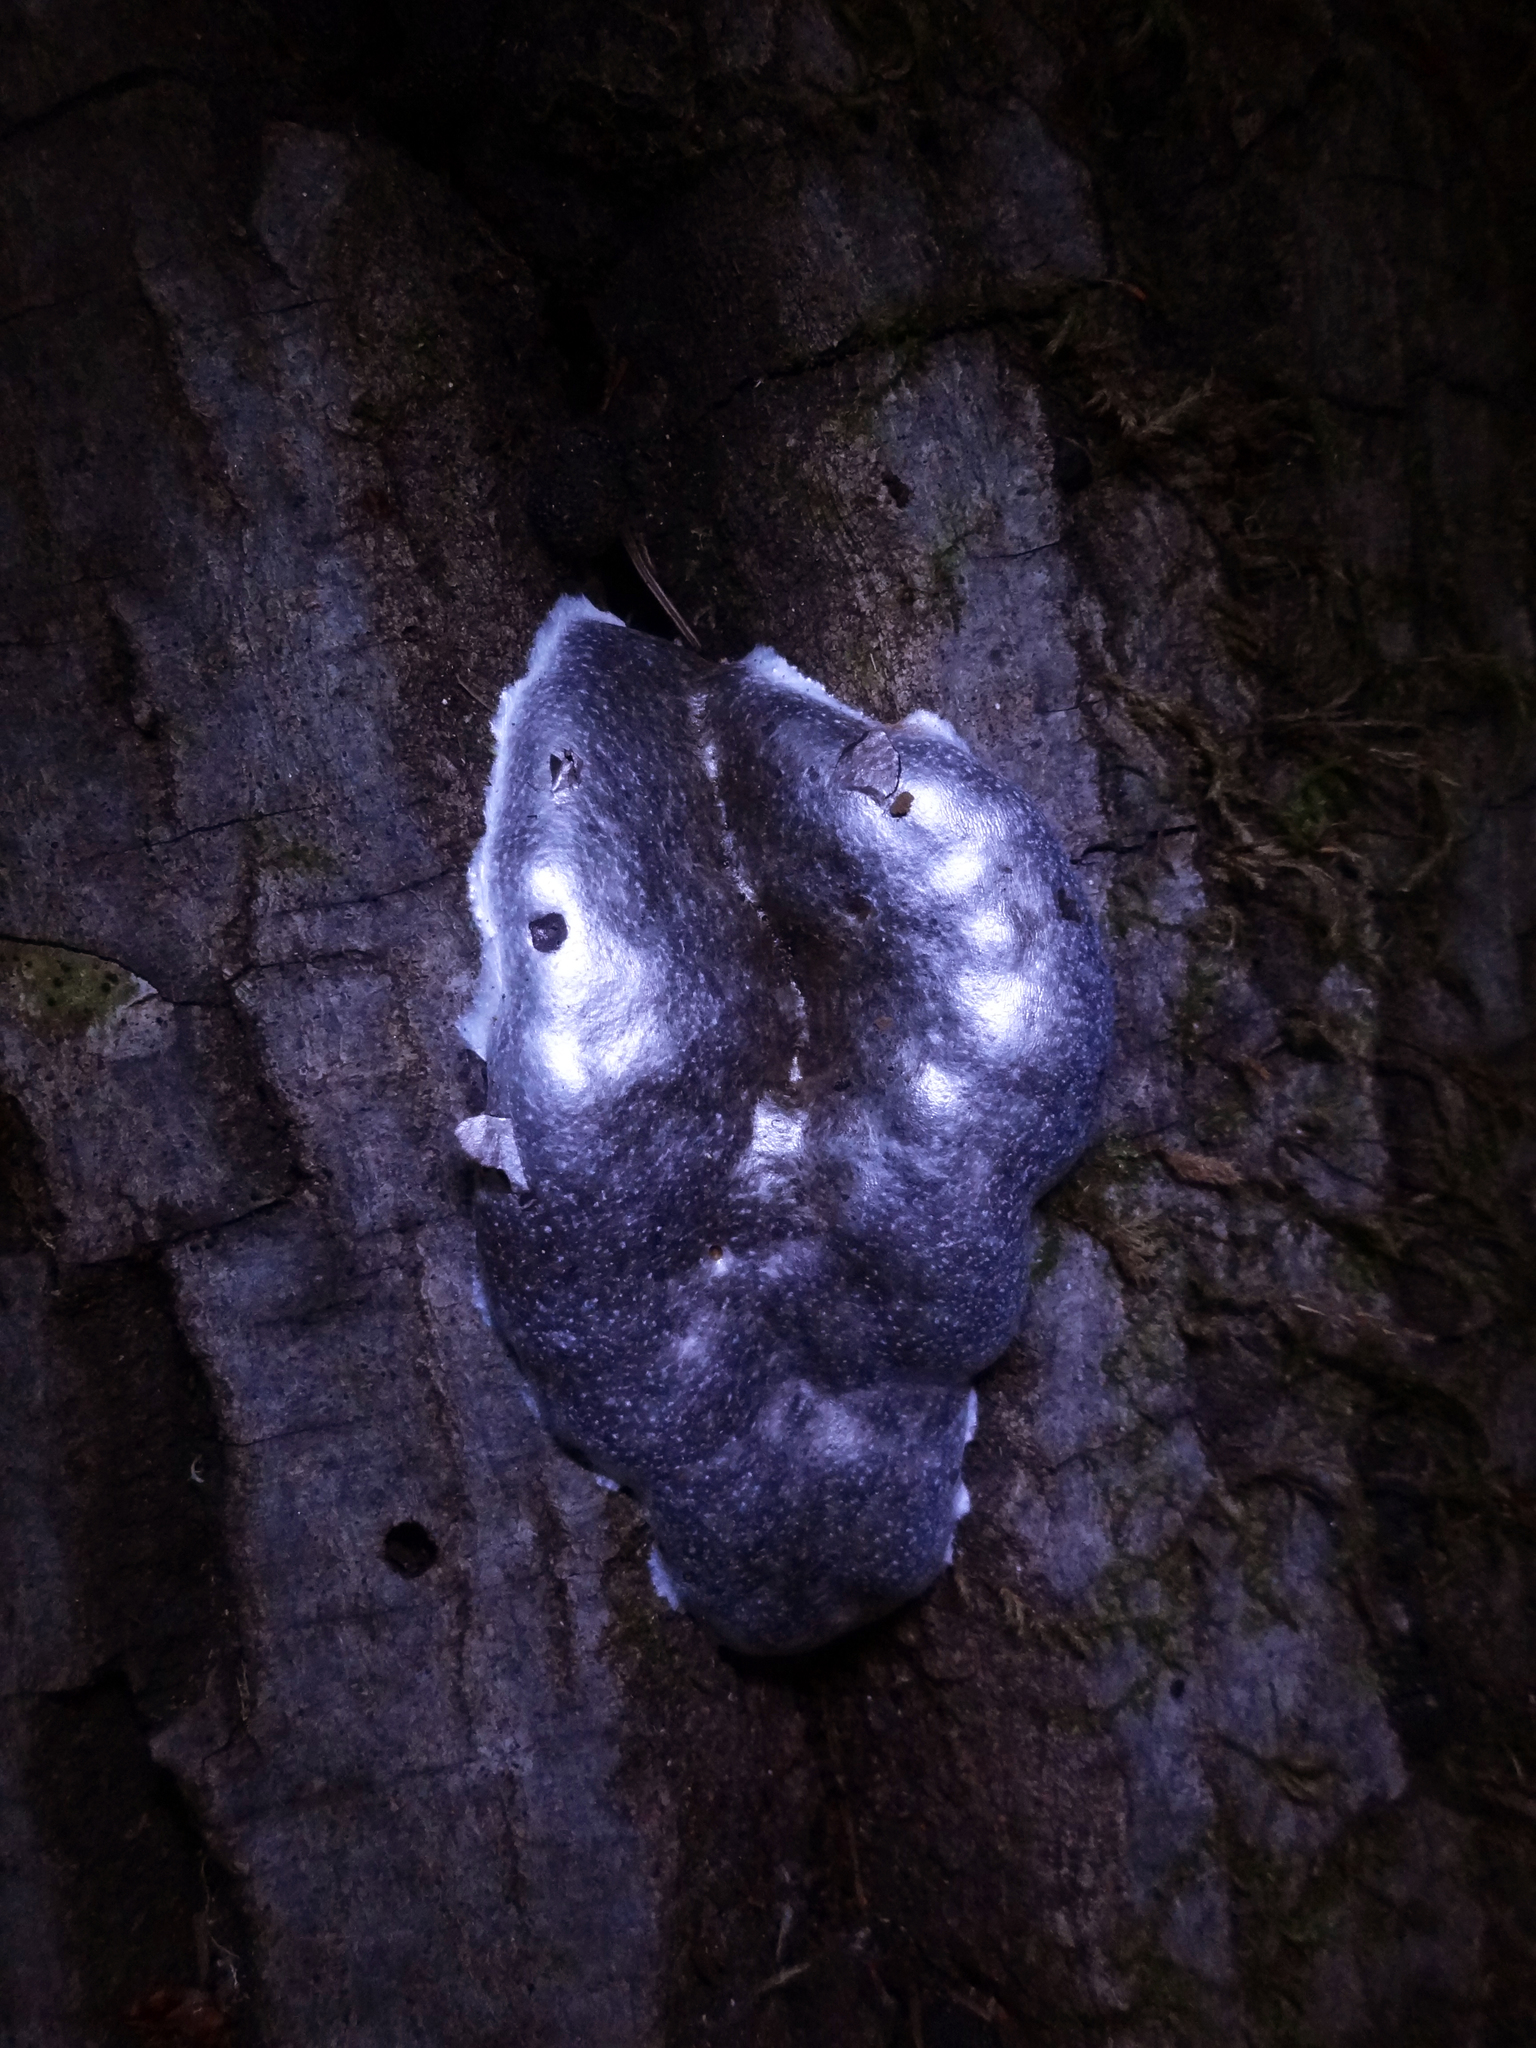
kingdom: Protozoa
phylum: Mycetozoa
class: Myxomycetes
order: Cribrariales
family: Tubiferaceae
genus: Reticularia
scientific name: Reticularia lycoperdon
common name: False puffball
